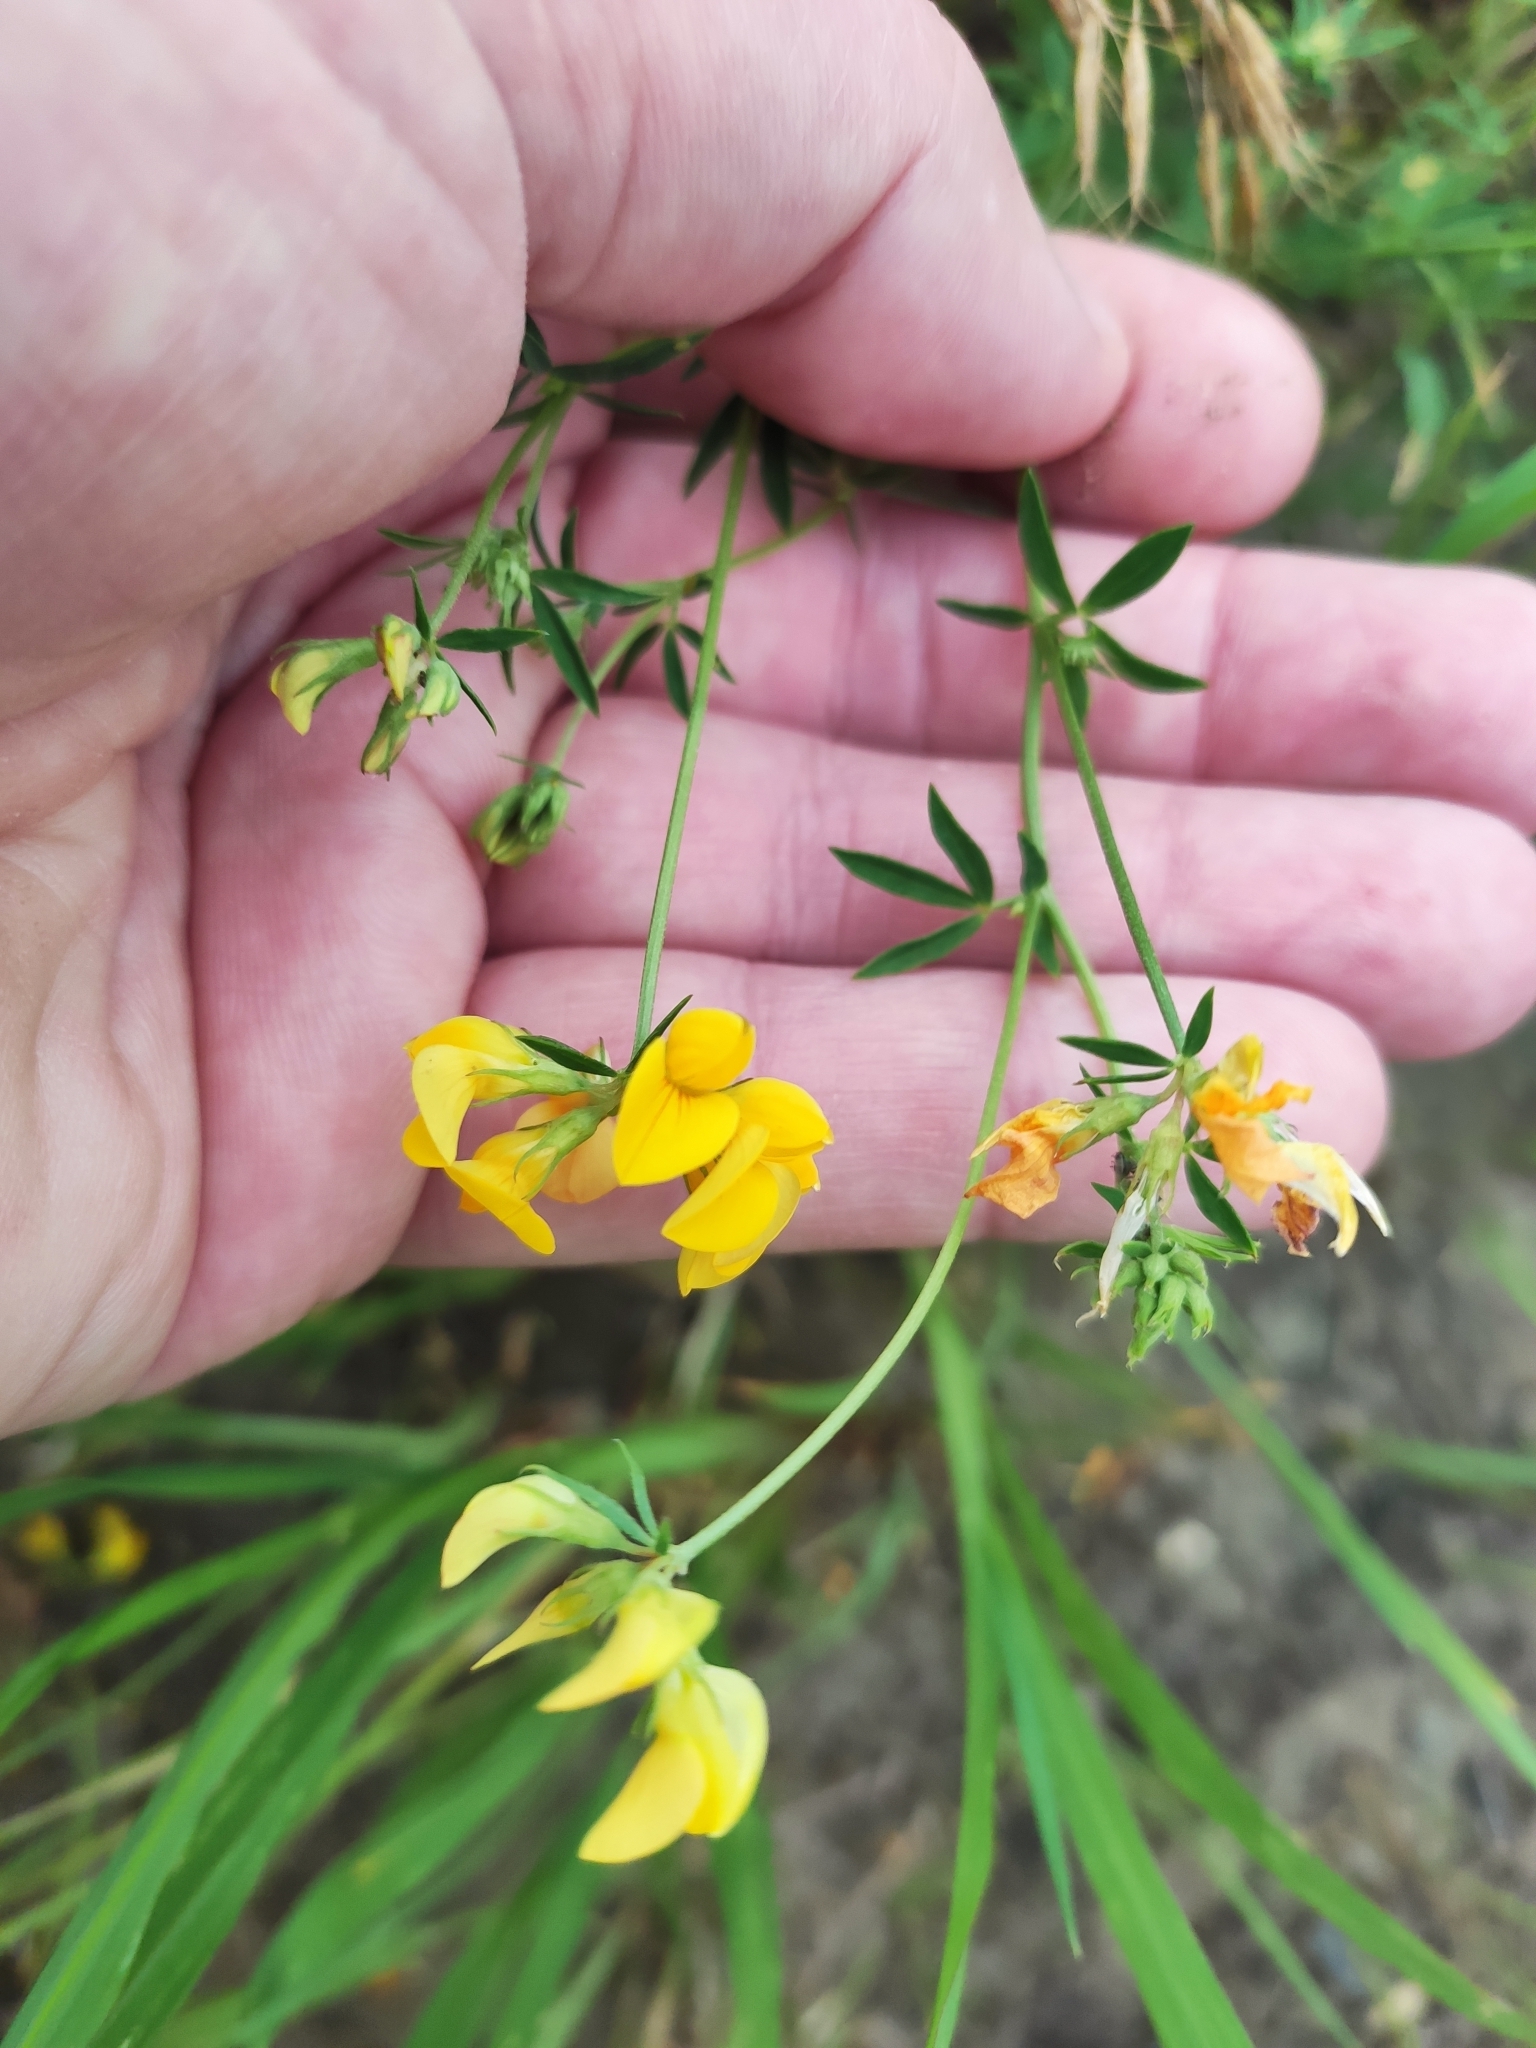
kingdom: Plantae
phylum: Tracheophyta
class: Magnoliopsida
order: Fabales
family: Fabaceae
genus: Lotus
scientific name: Lotus corniculatus
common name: Common bird's-foot-trefoil
